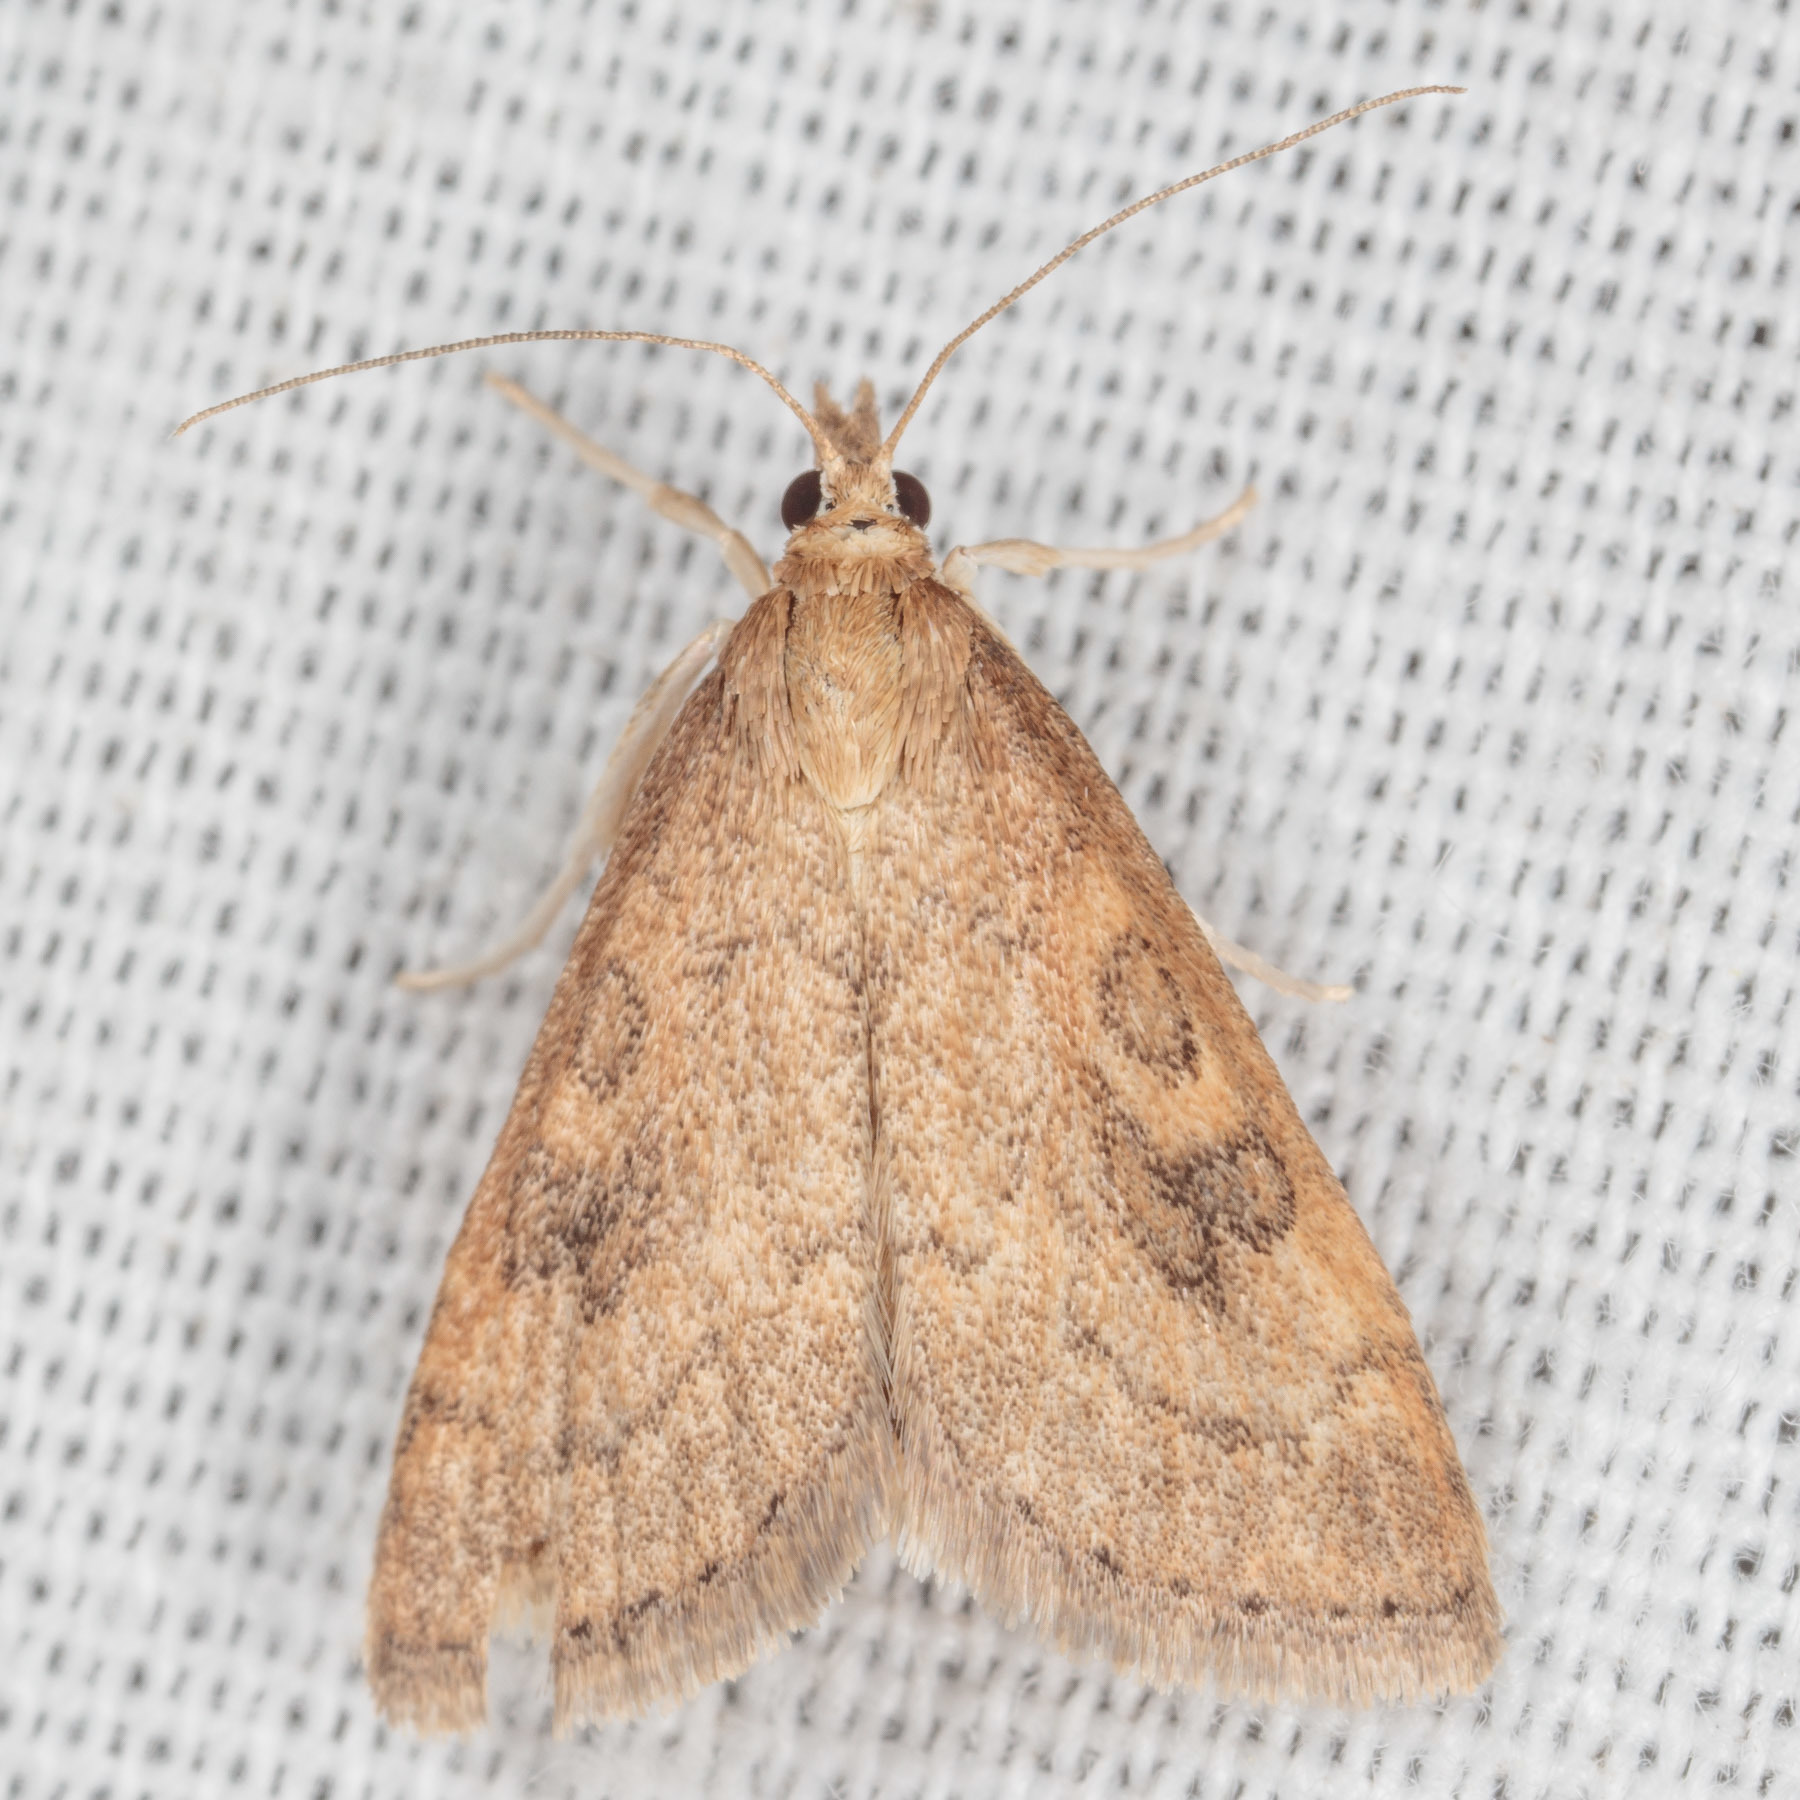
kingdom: Animalia
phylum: Arthropoda
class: Insecta
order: Lepidoptera
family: Crambidae
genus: Udea
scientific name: Udea rubigalis
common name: Celery leaftier moth
